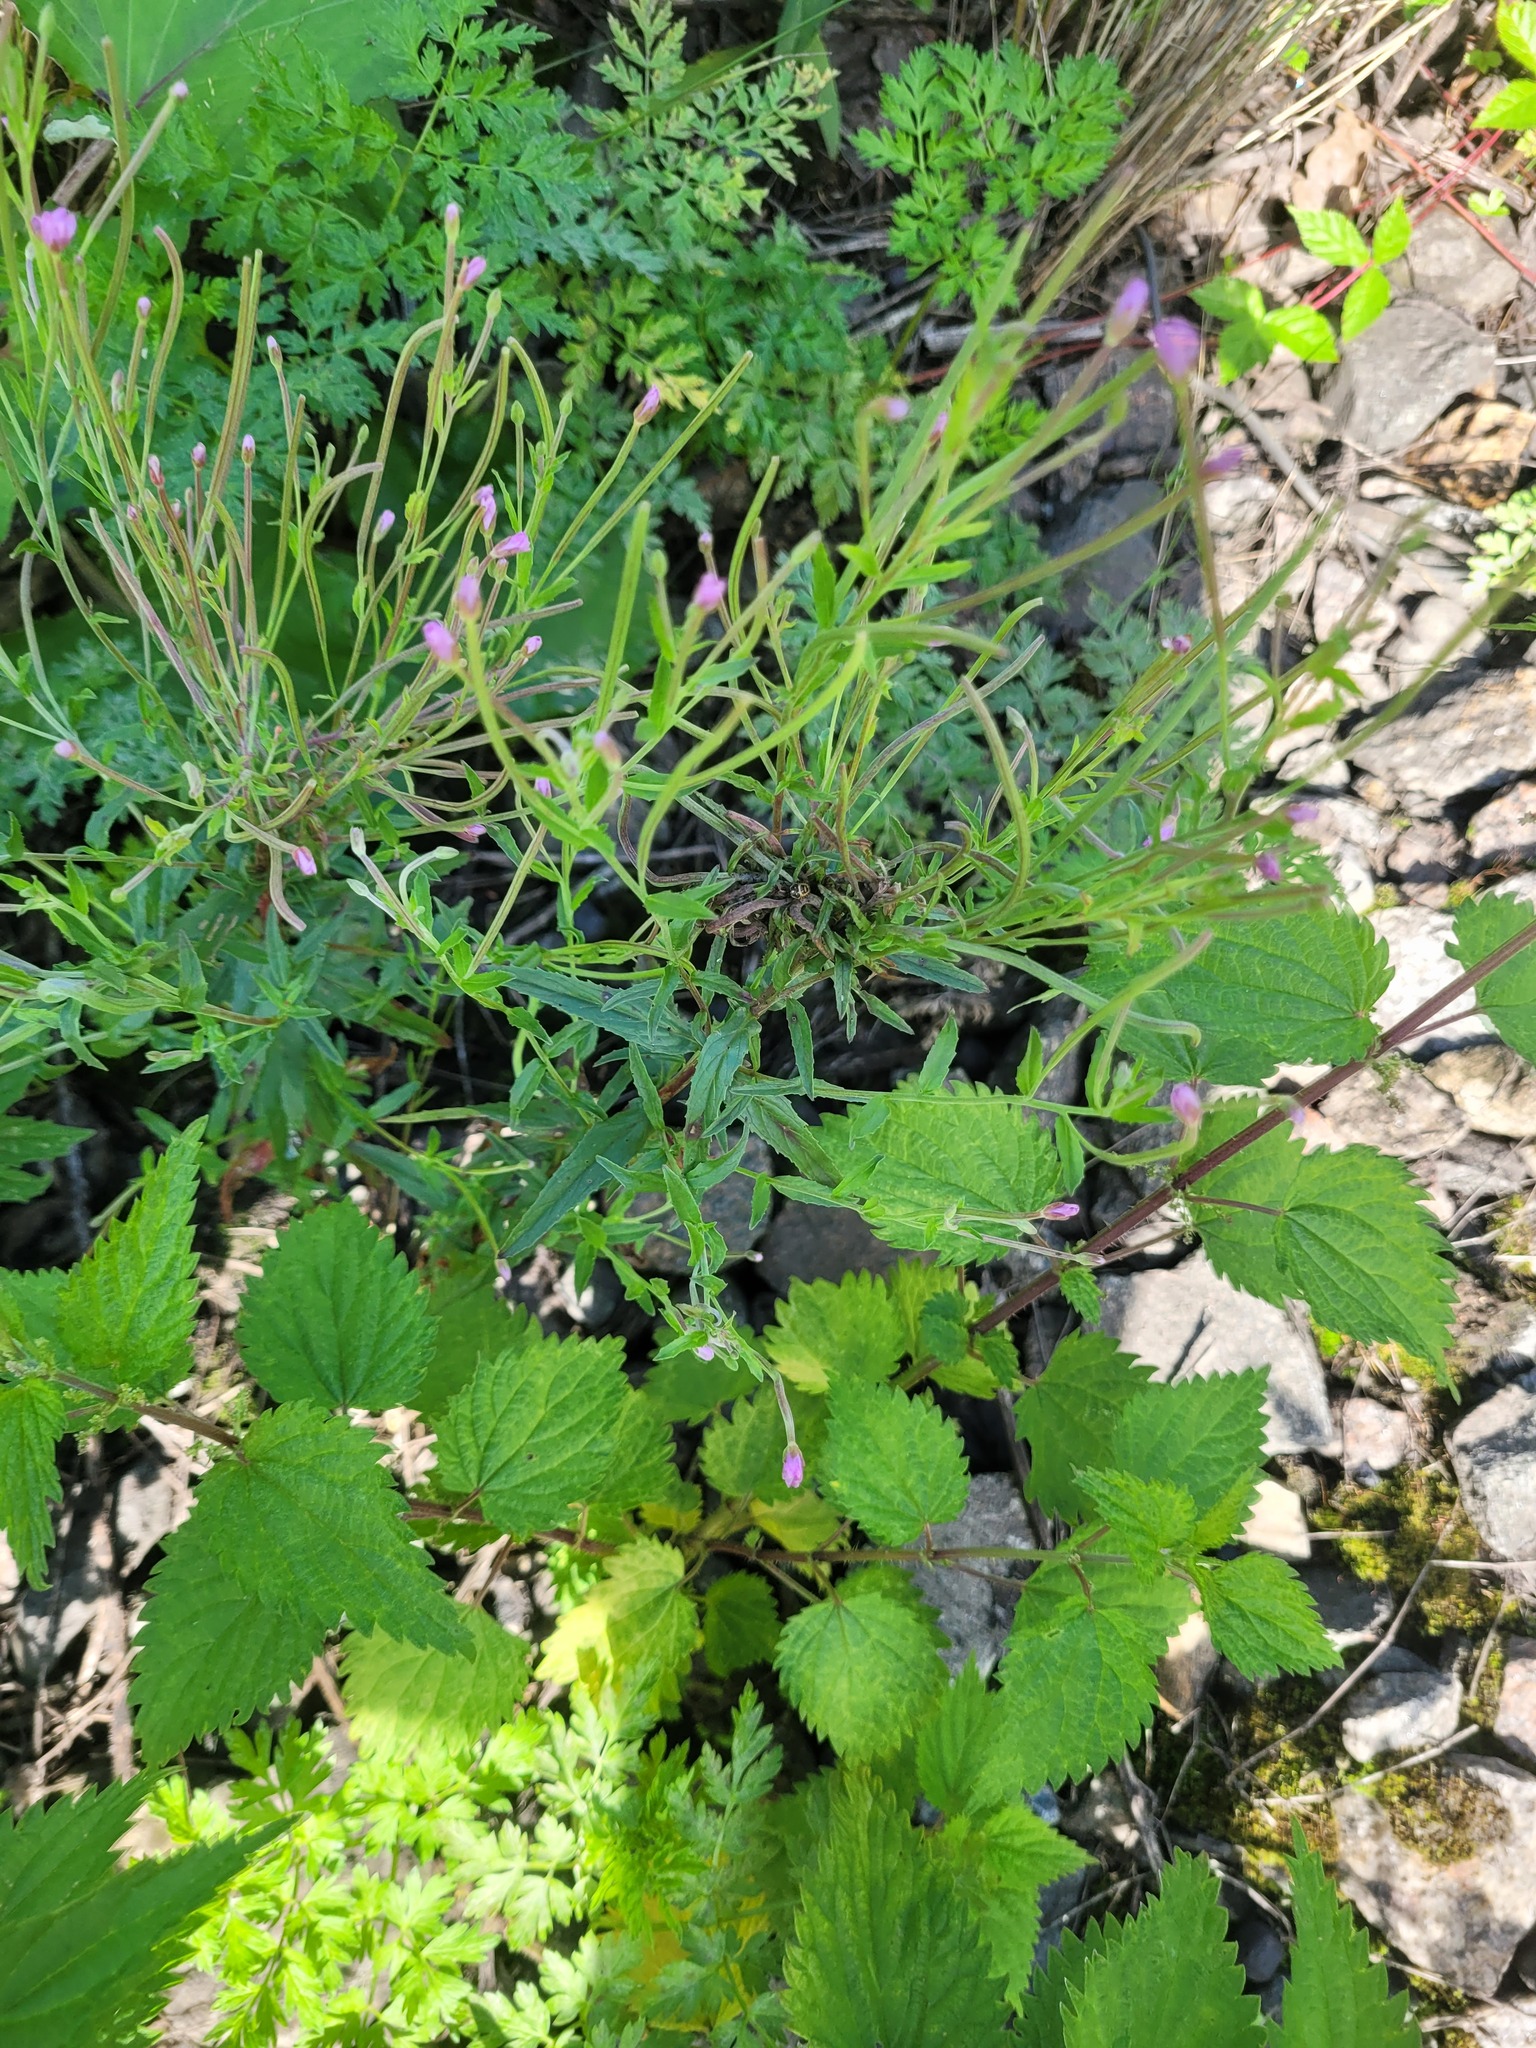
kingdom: Plantae
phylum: Tracheophyta
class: Magnoliopsida
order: Myrtales
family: Onagraceae
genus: Epilobium
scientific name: Epilobium lamyi
